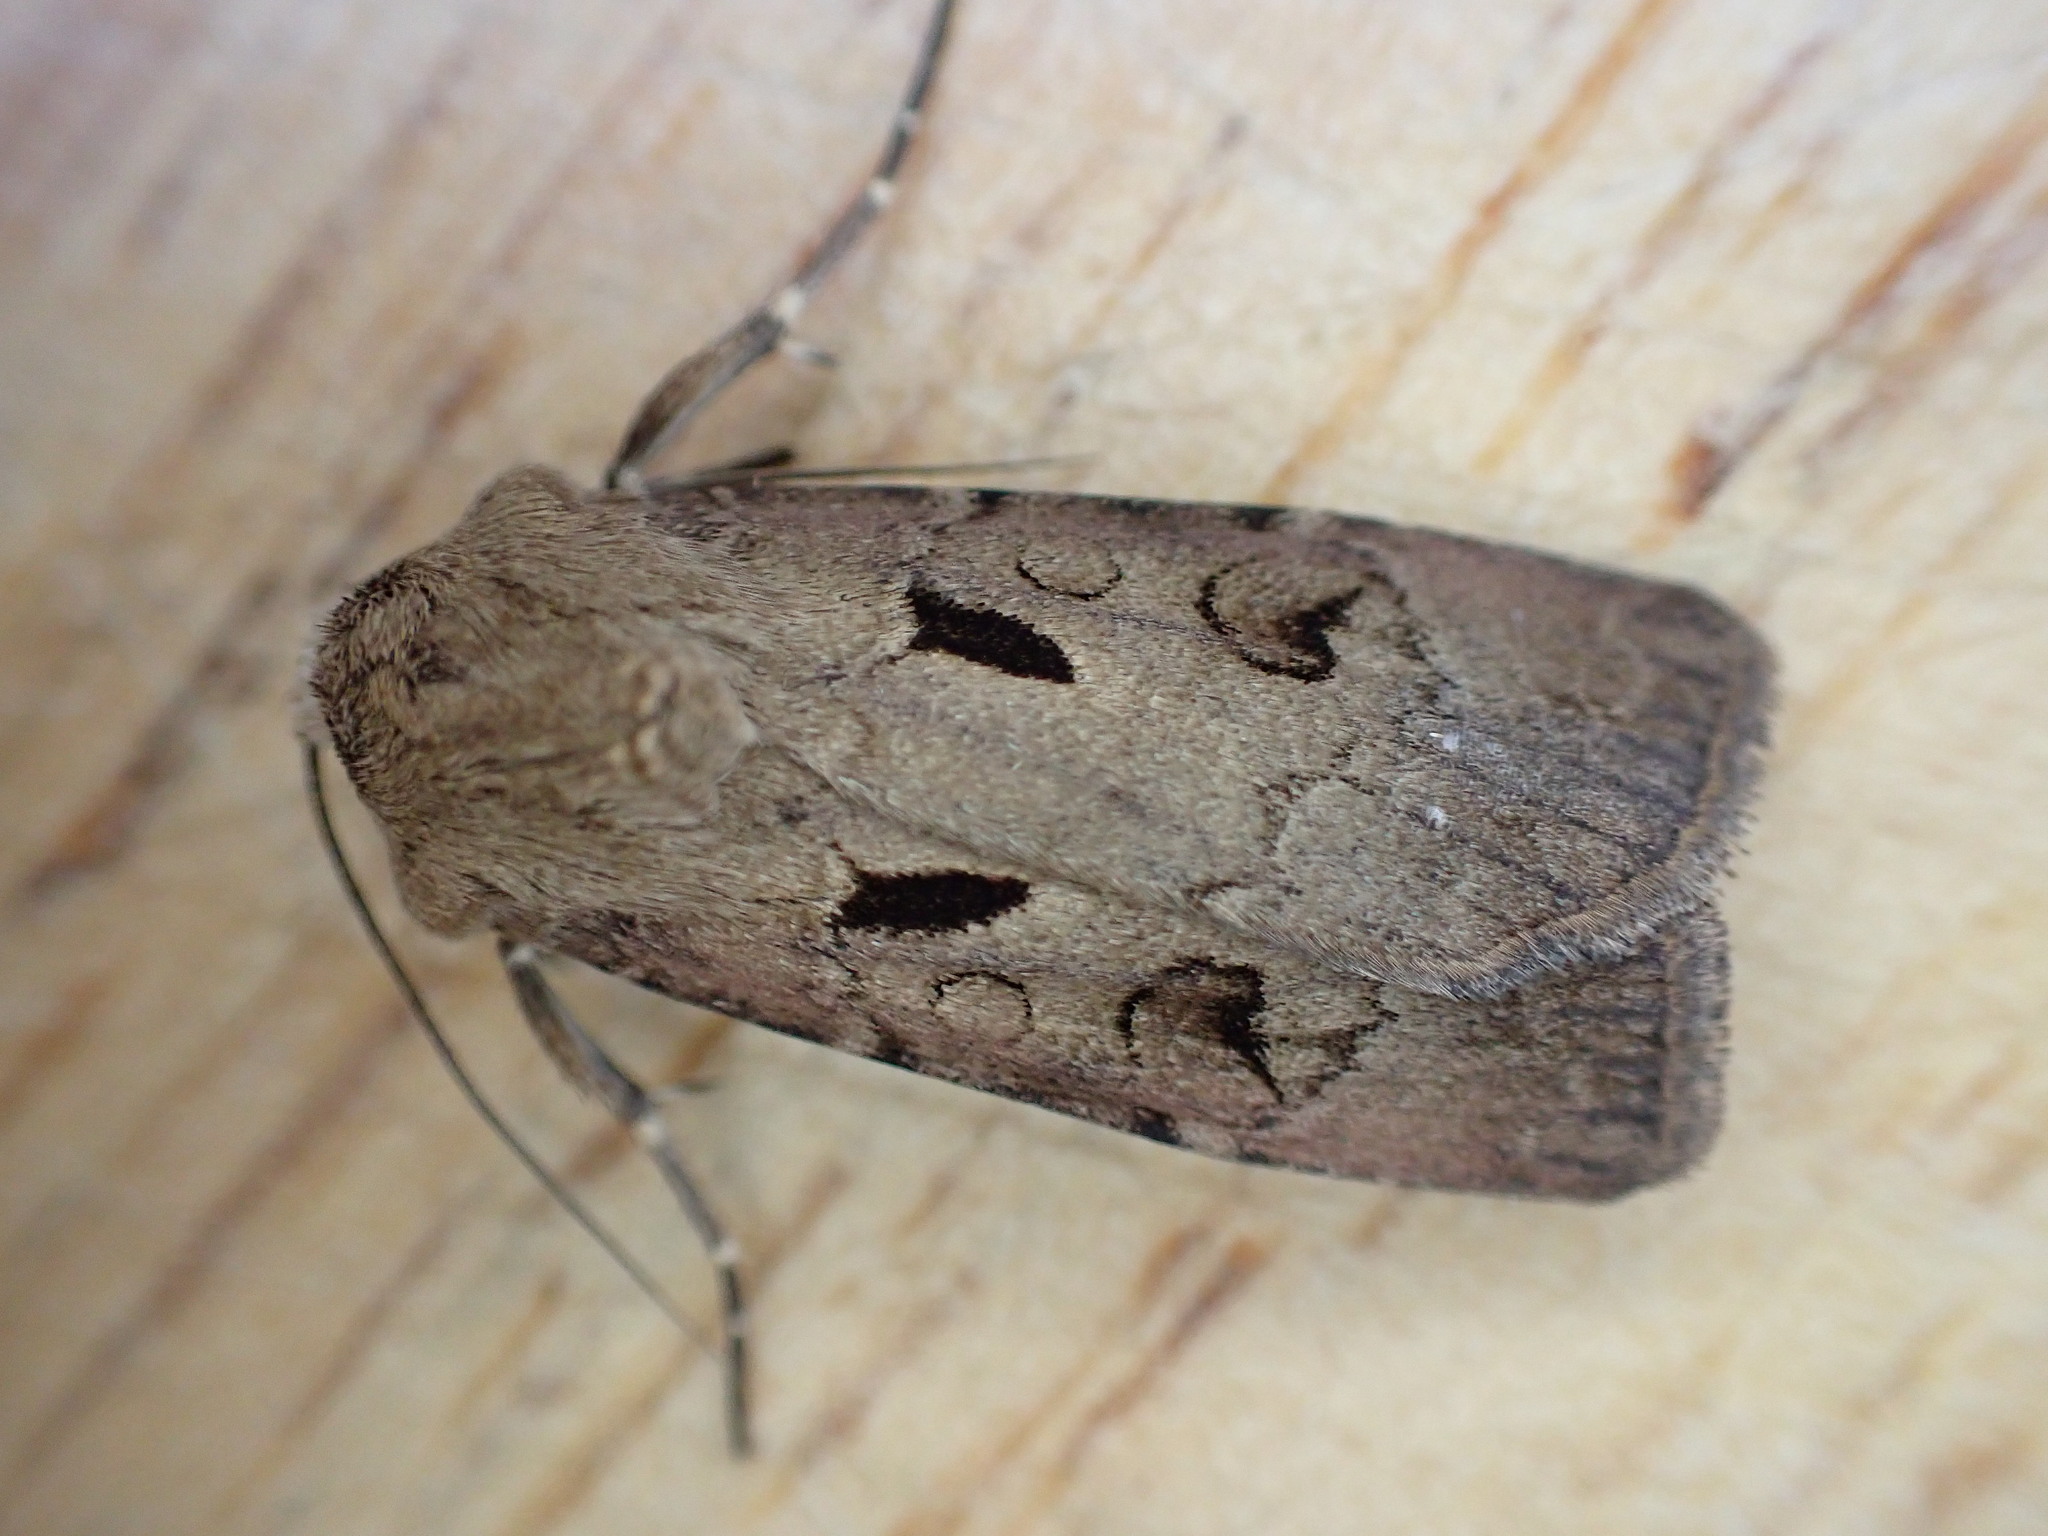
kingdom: Animalia
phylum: Arthropoda
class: Insecta
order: Lepidoptera
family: Noctuidae
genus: Agrotis
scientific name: Agrotis exclamationis
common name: Heart and dart
